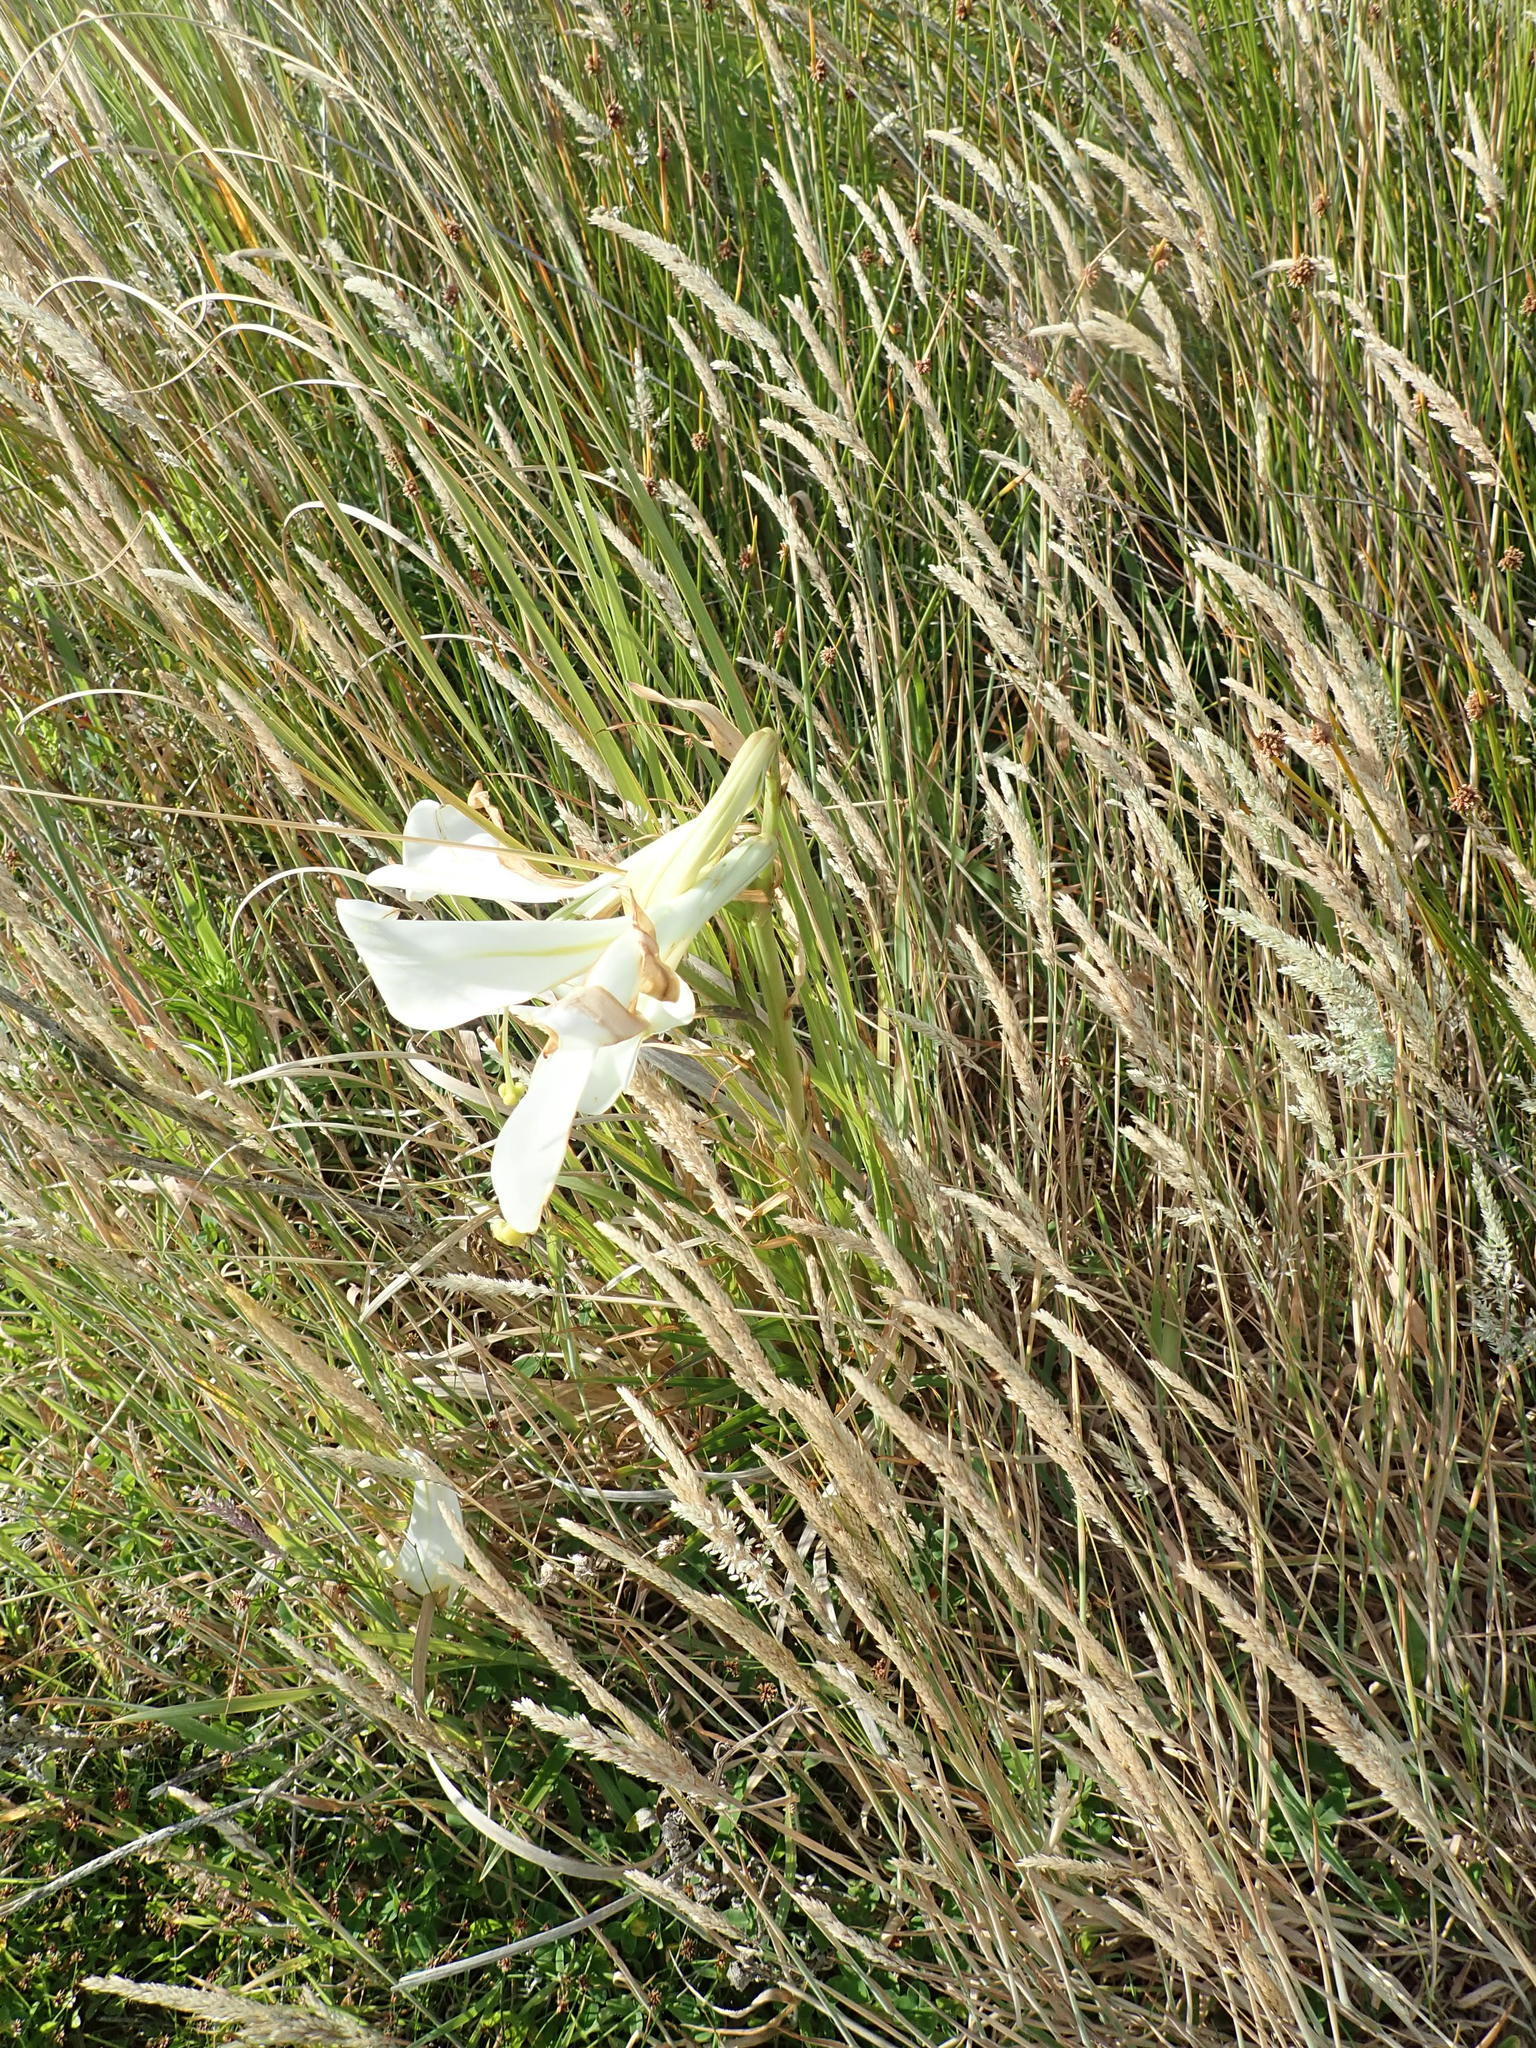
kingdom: Plantae
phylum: Tracheophyta
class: Liliopsida
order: Liliales
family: Liliaceae
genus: Lilium
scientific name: Lilium formosanum
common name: Formosa lily
